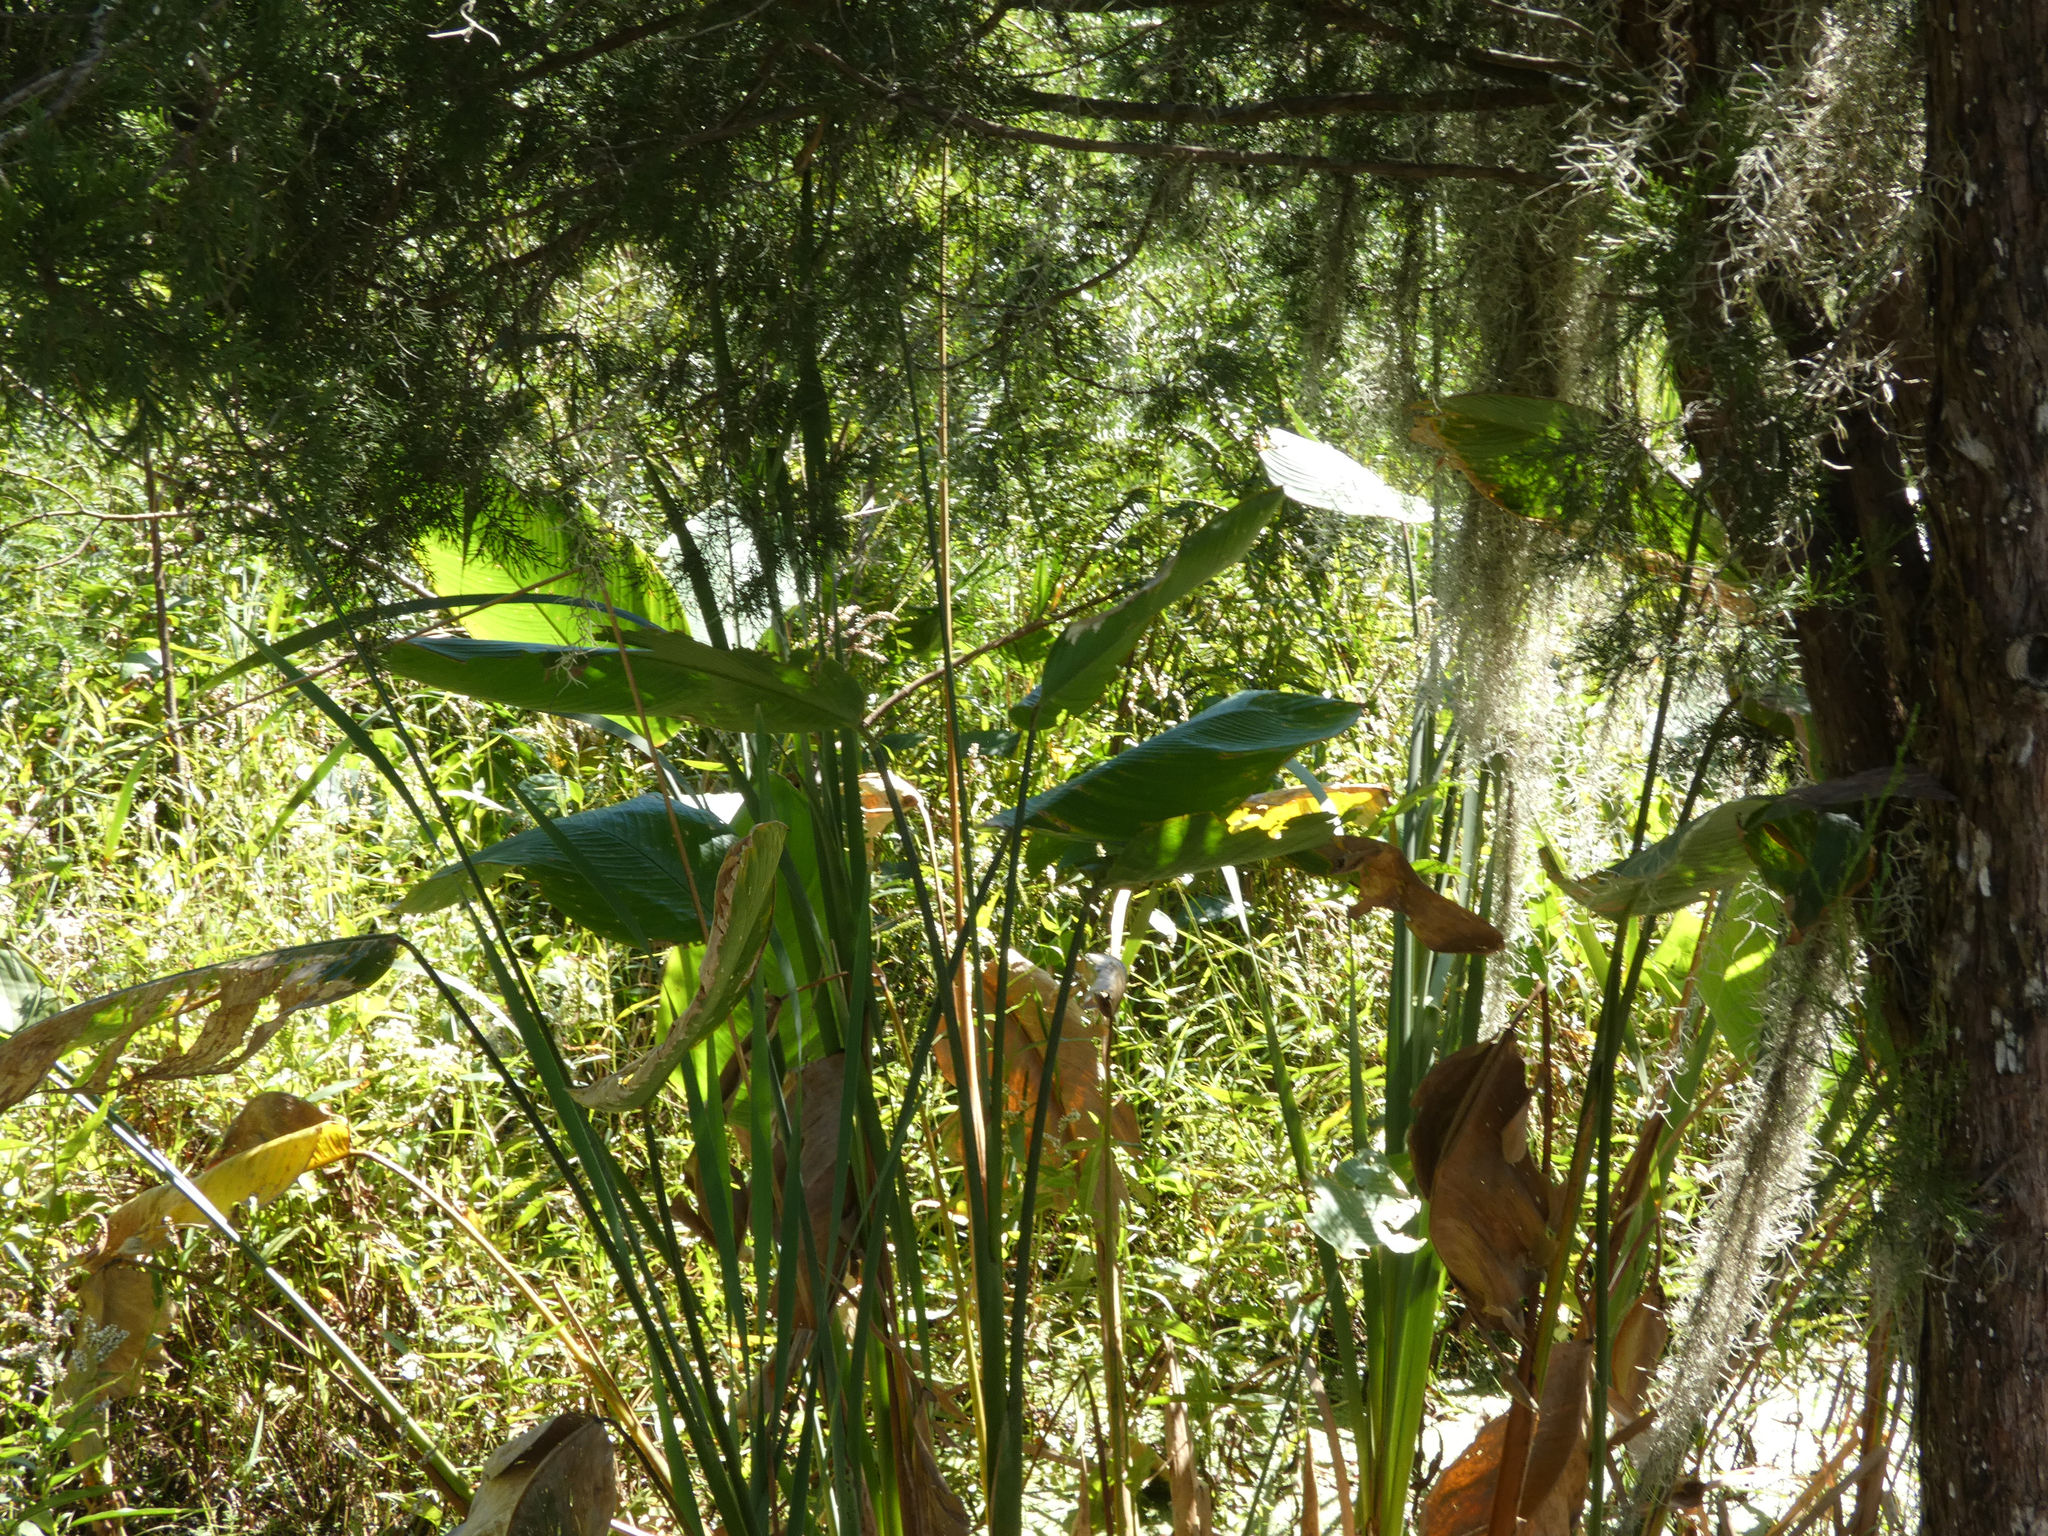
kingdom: Plantae
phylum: Tracheophyta
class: Liliopsida
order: Zingiberales
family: Marantaceae
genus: Thalia
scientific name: Thalia geniculata
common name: Arrowroot
